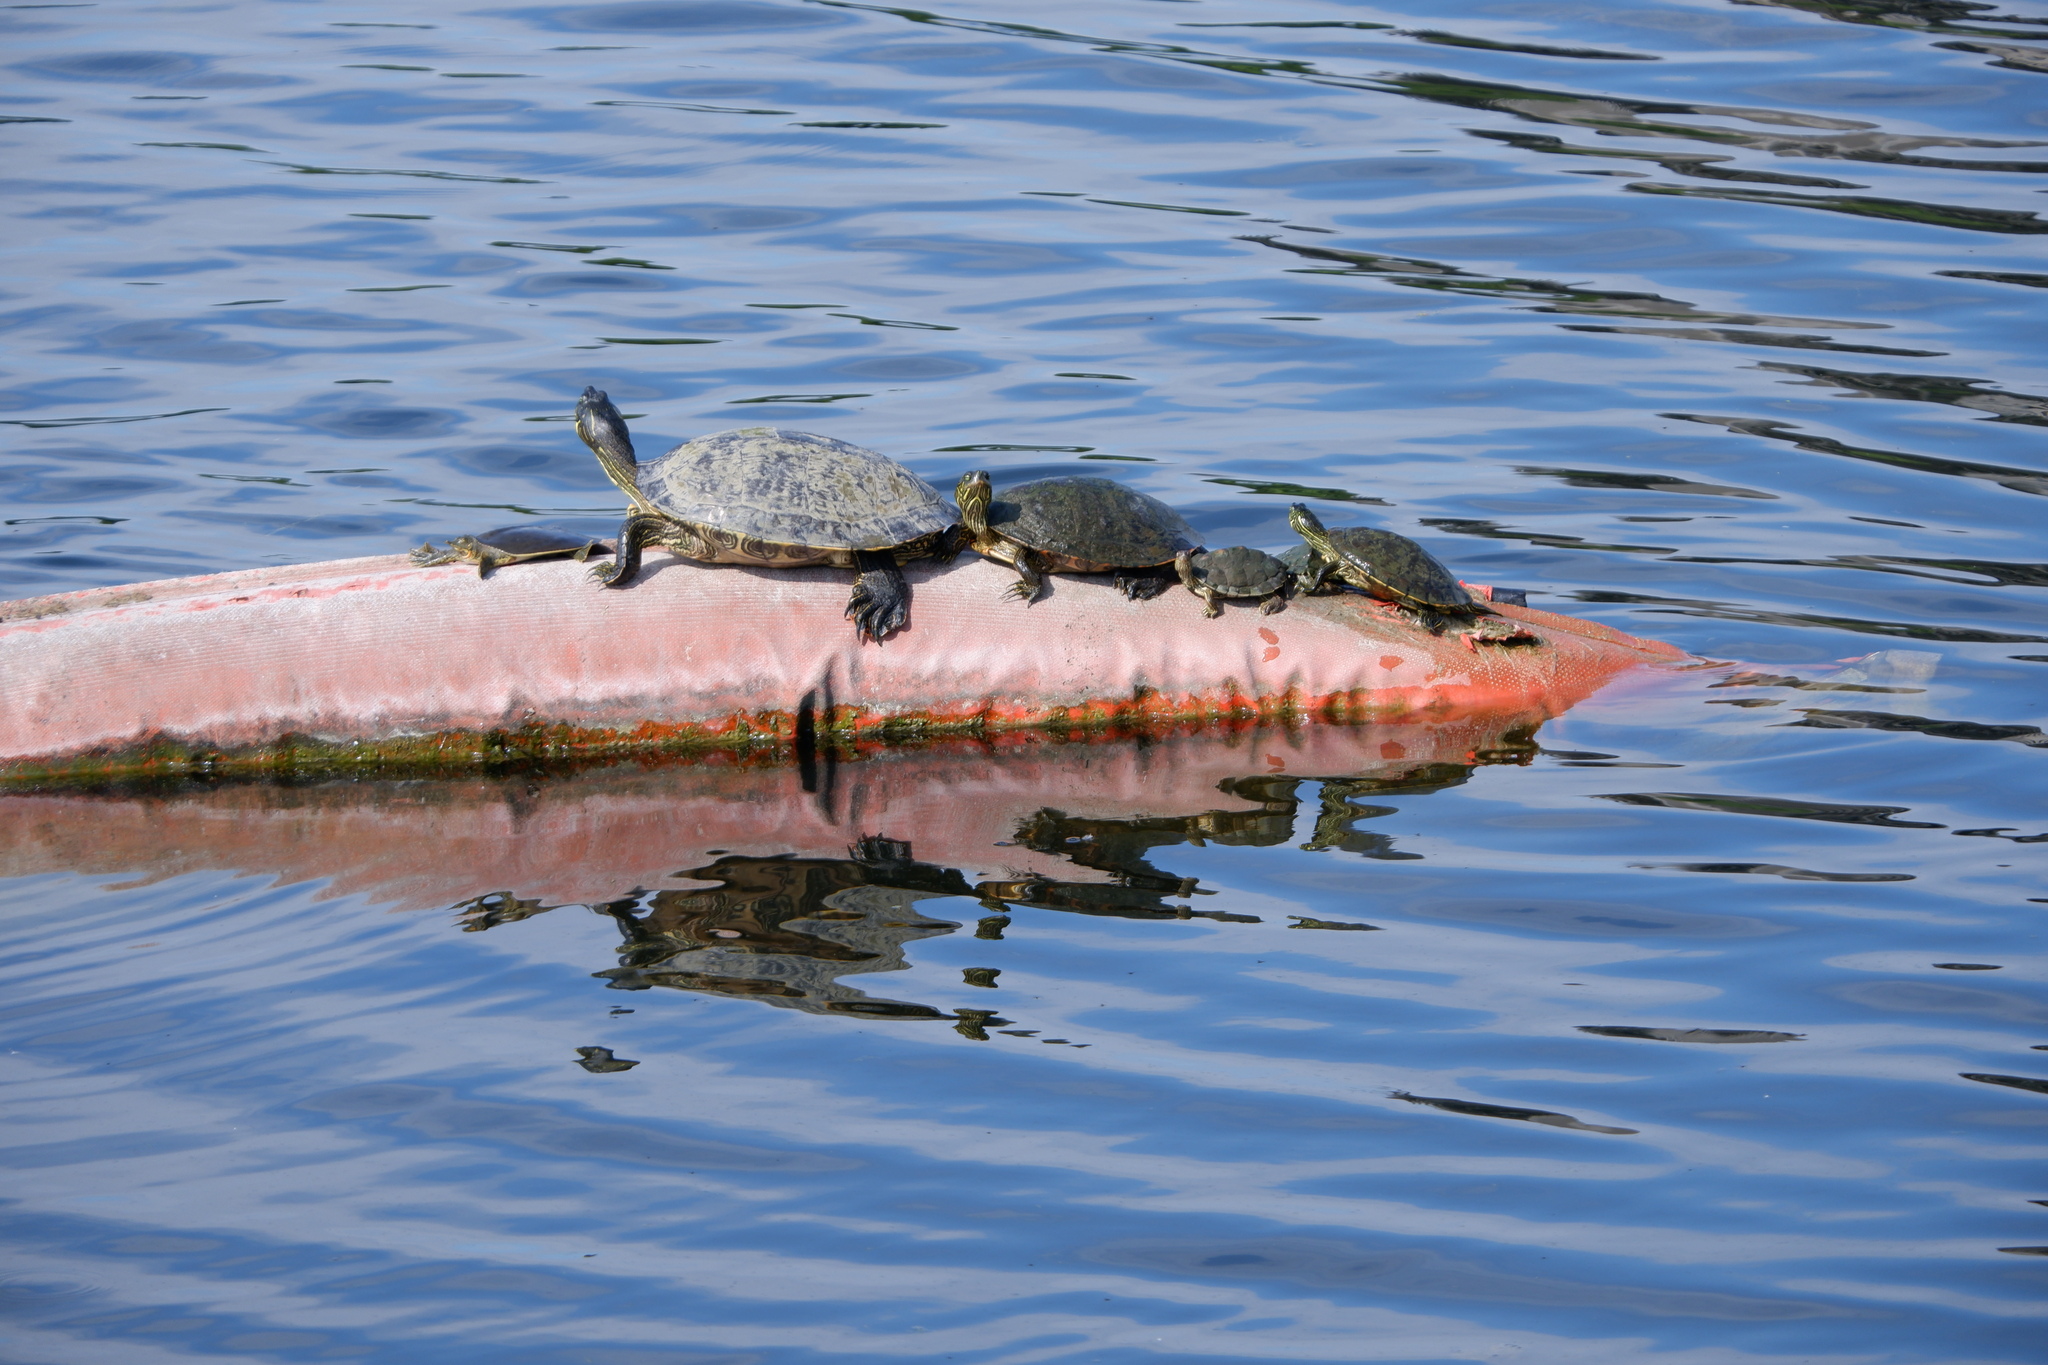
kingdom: Animalia
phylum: Chordata
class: Testudines
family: Trionychidae
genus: Apalone
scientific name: Apalone spinifera
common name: Spiny softshell turtle
